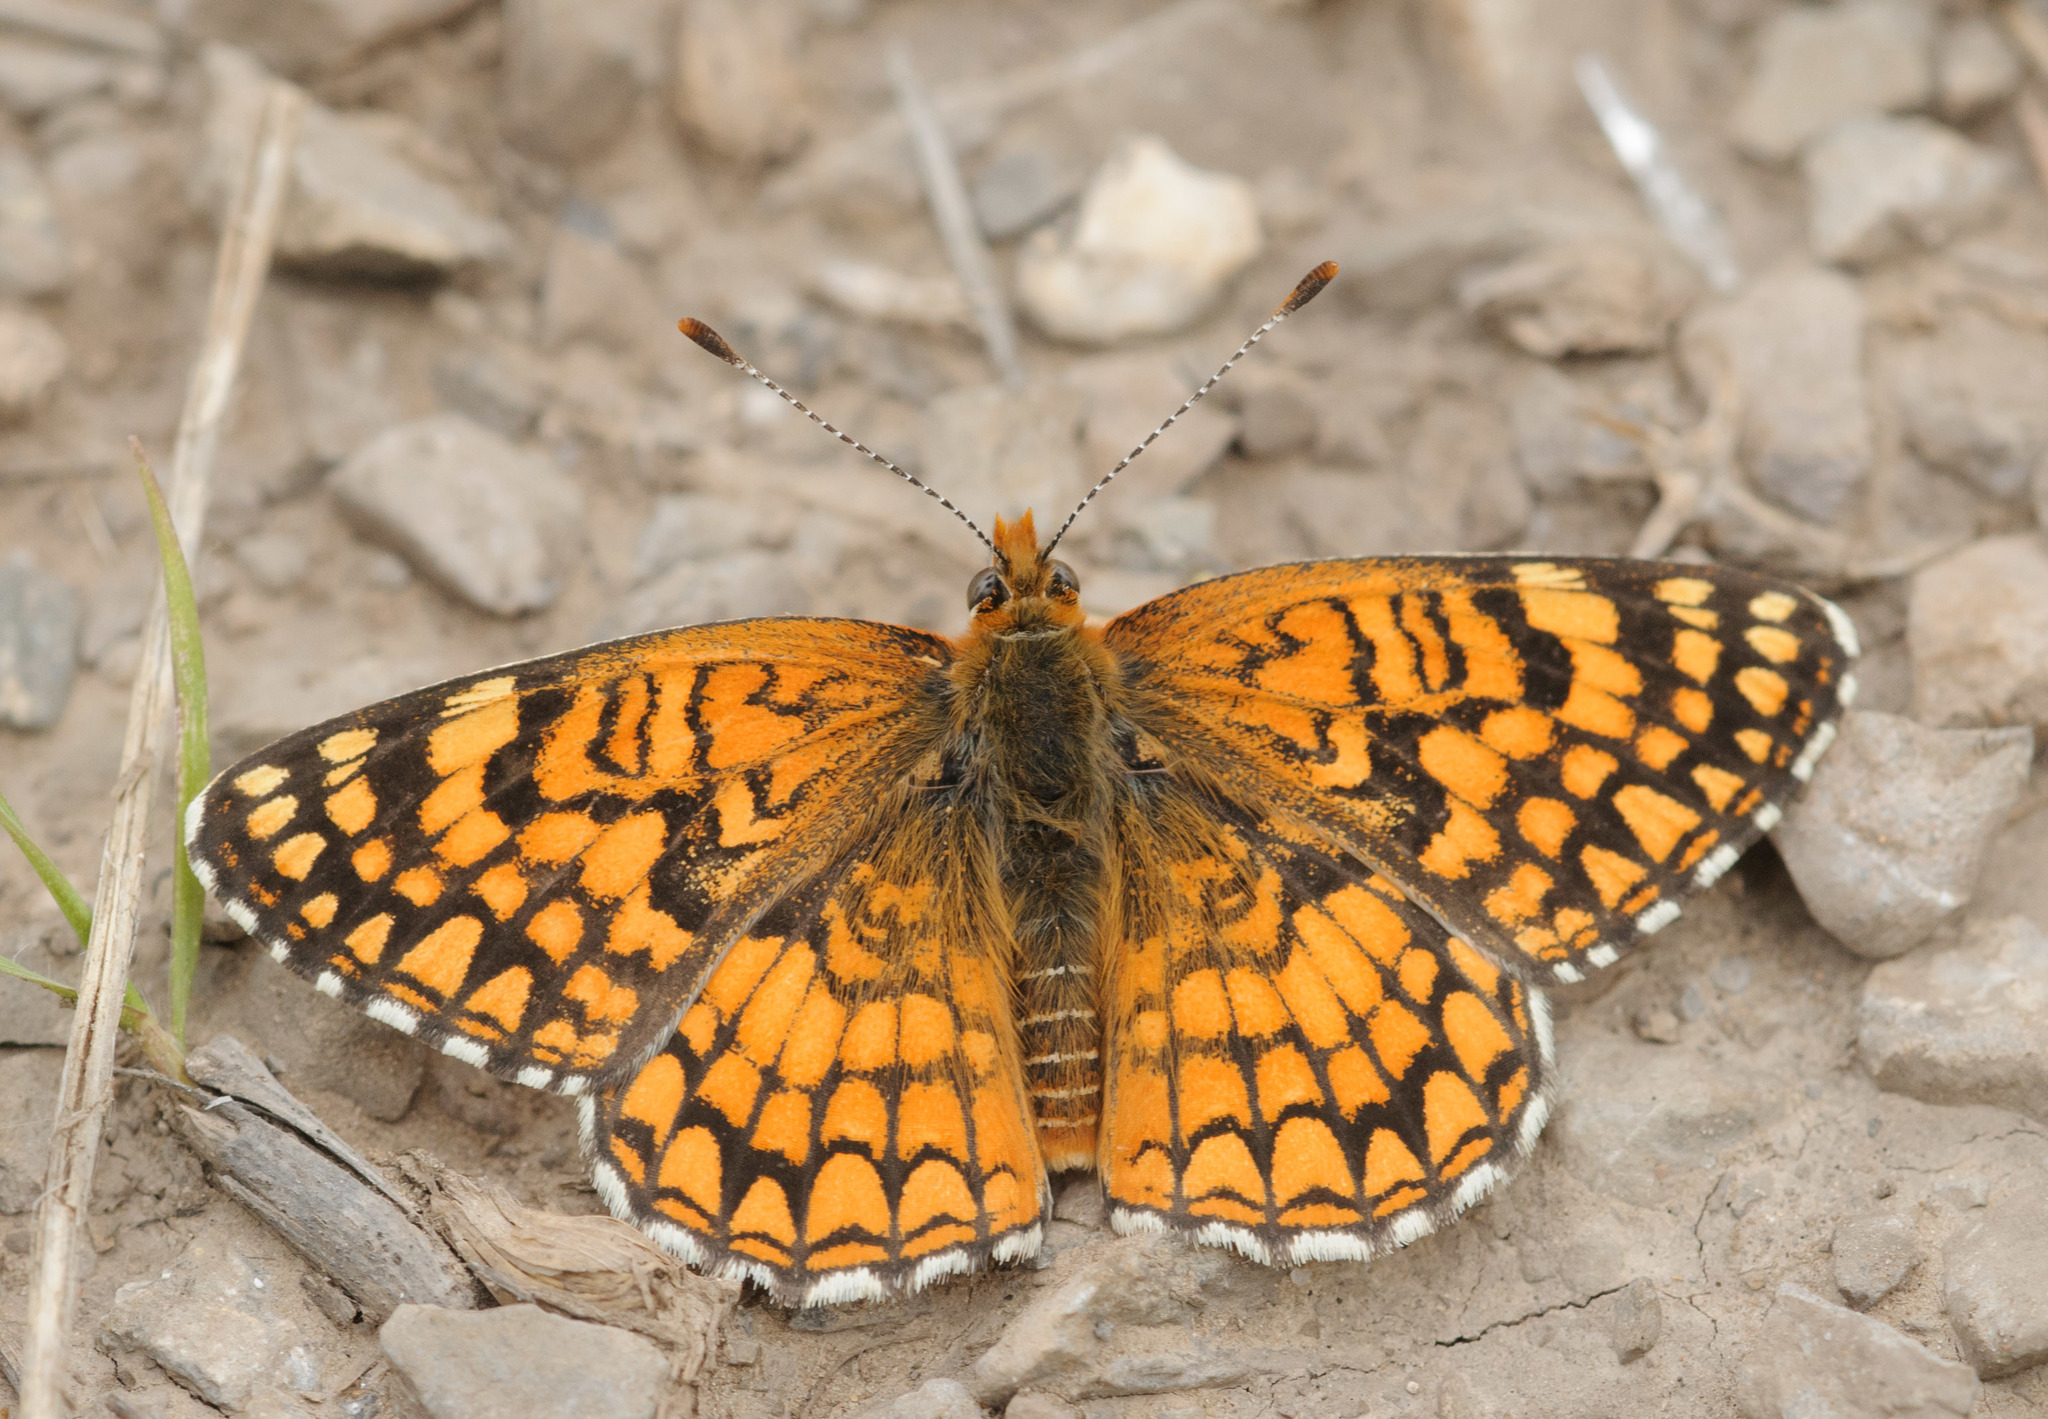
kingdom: Animalia
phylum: Arthropoda
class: Insecta
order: Lepidoptera
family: Nymphalidae
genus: Chlosyne
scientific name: Chlosyne acastus
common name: Sagebrush checkerspot
